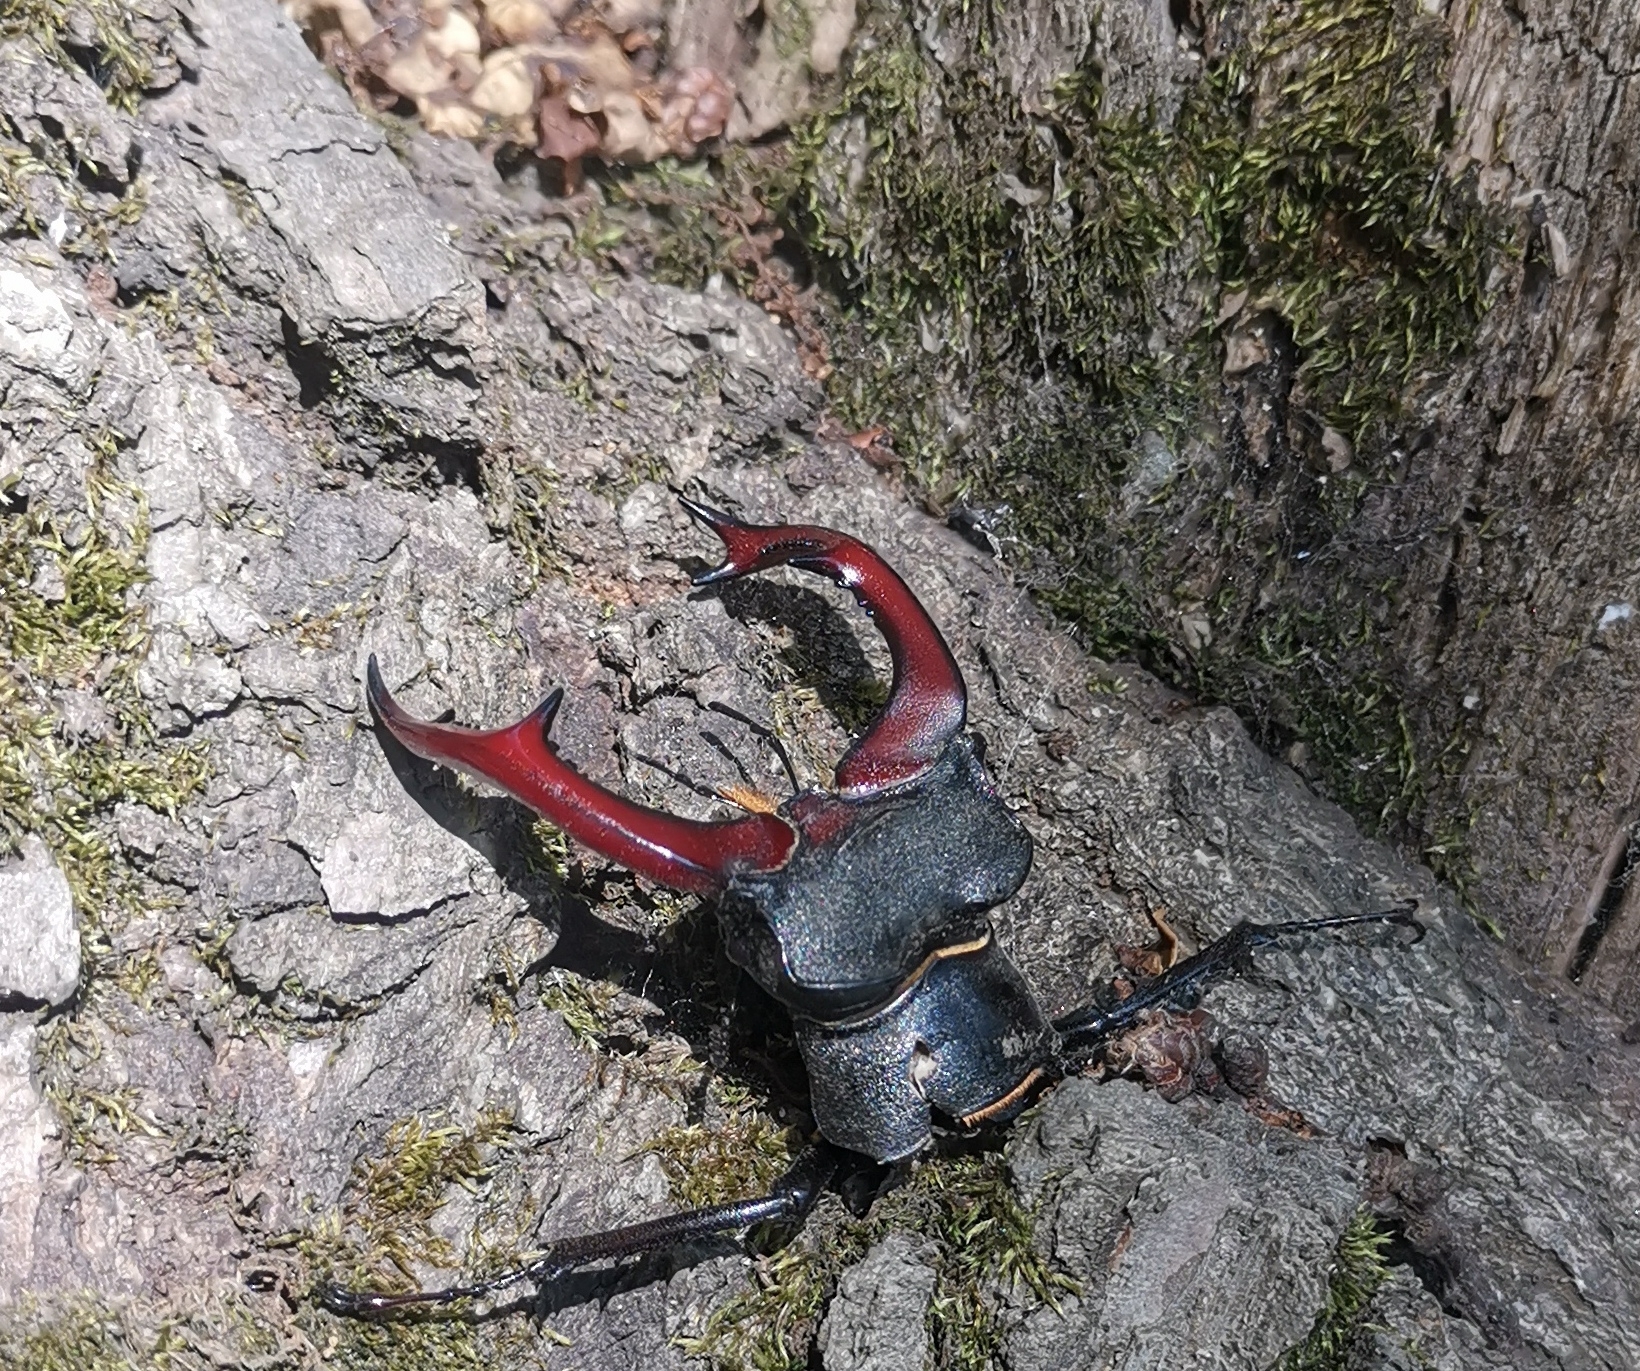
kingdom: Animalia
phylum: Arthropoda
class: Insecta
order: Coleoptera
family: Lucanidae
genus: Lucanus
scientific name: Lucanus cervus
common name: Stag beetle
